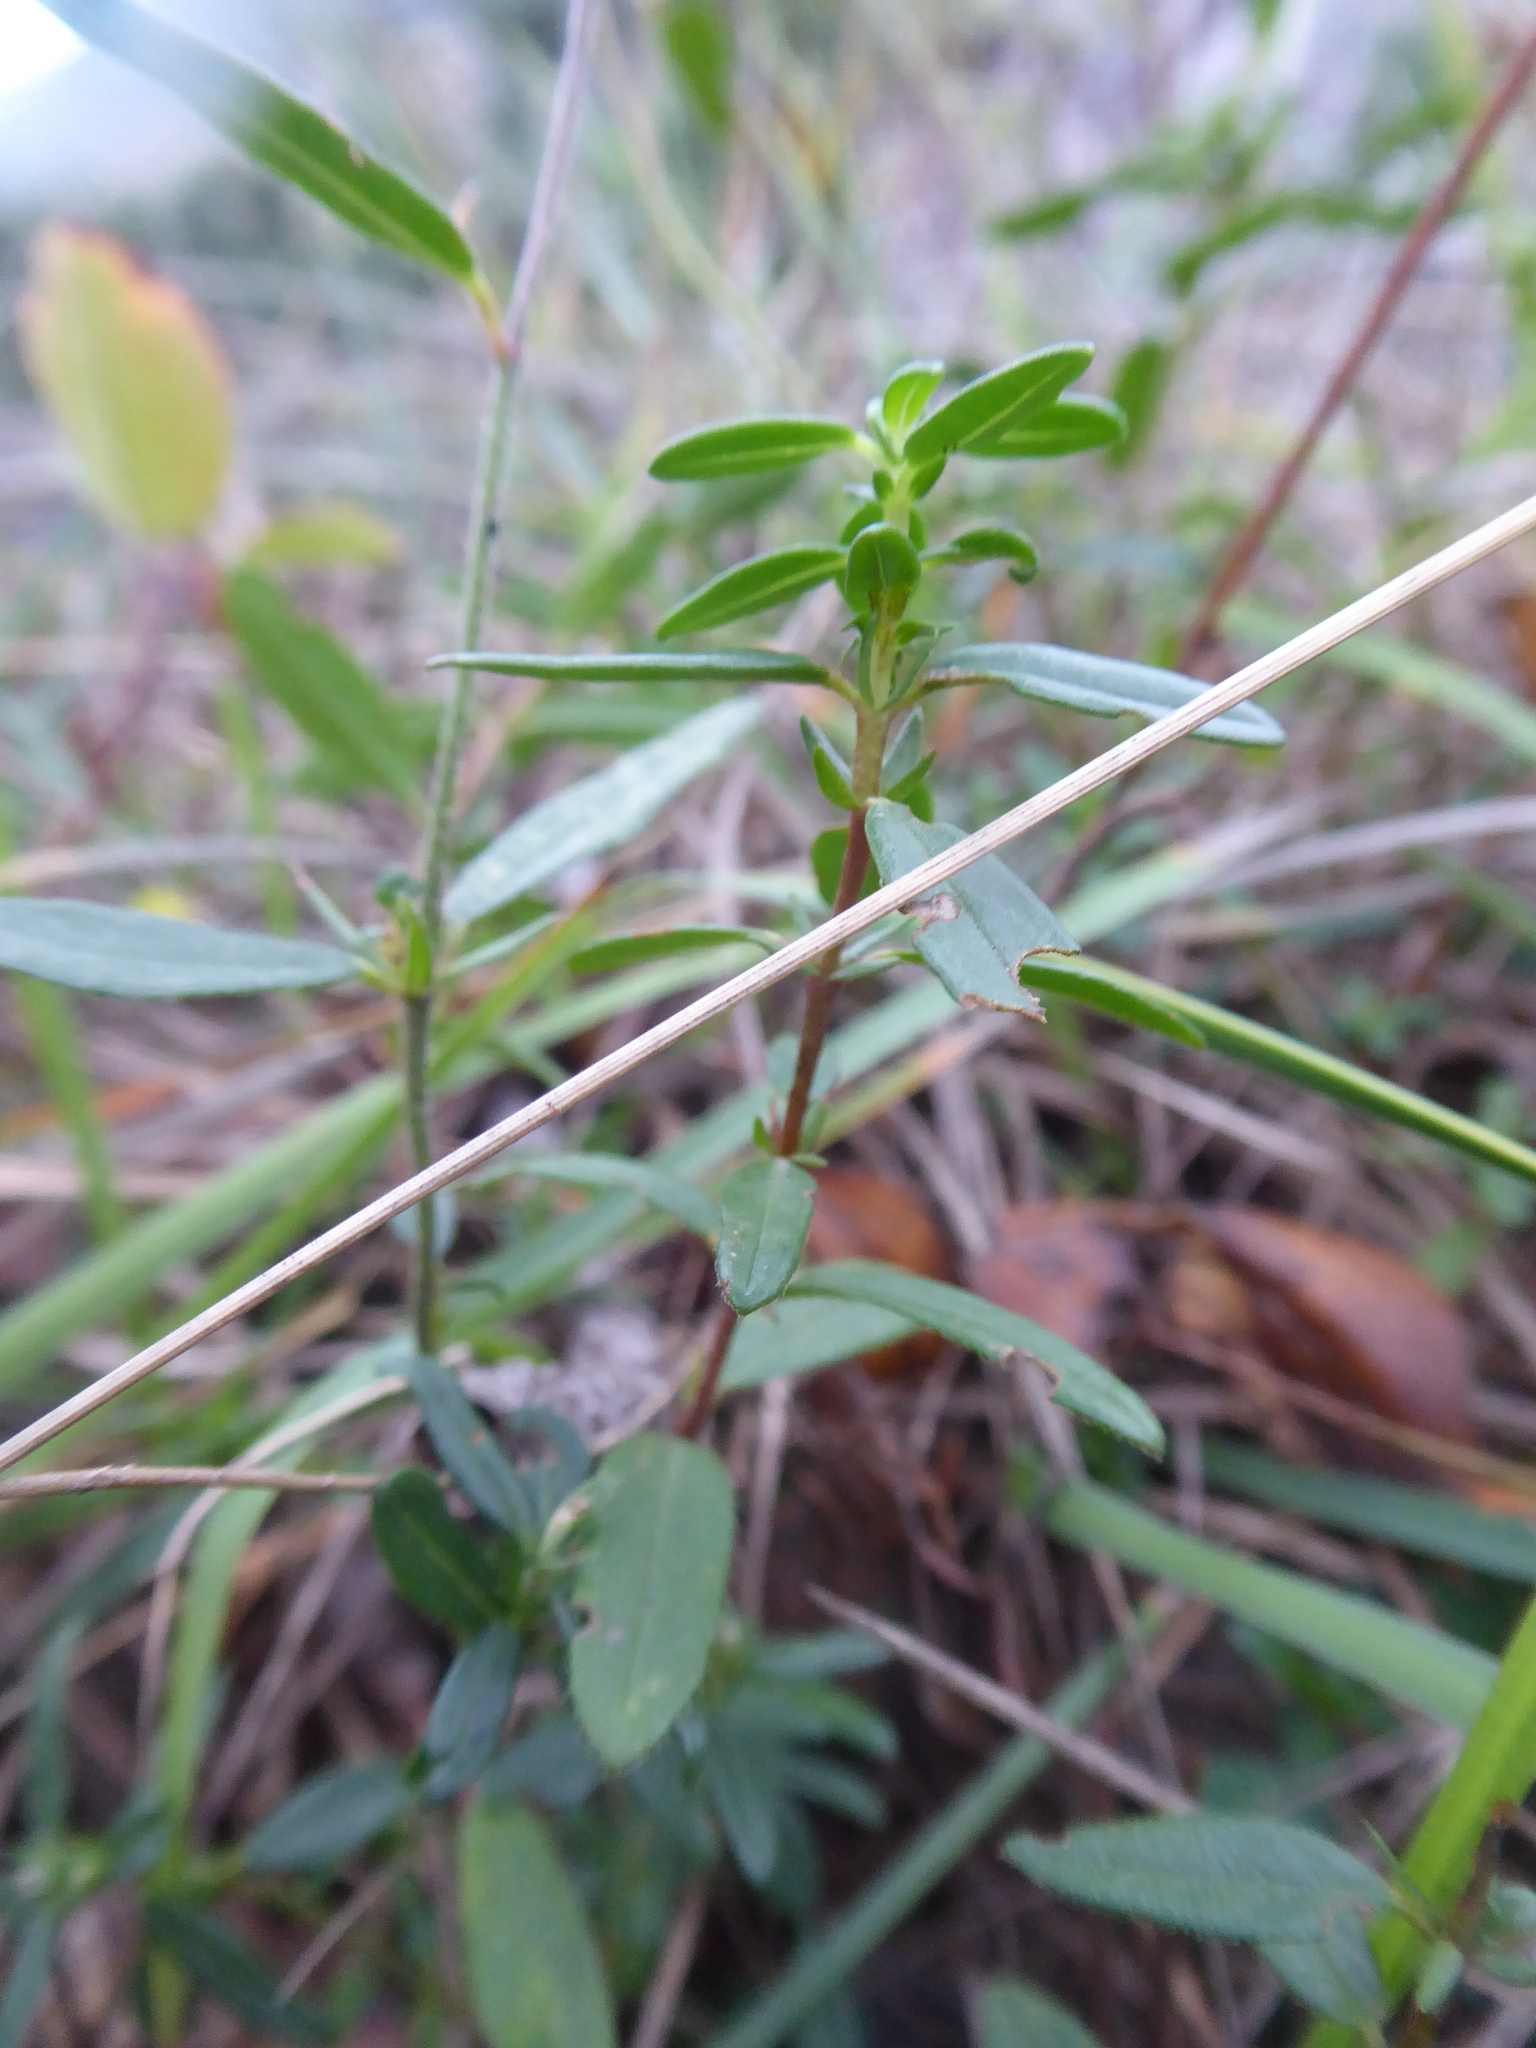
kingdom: Plantae
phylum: Tracheophyta
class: Magnoliopsida
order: Malvales
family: Cistaceae
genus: Helianthemum
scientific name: Helianthemum nummularium
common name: Common rock-rose
